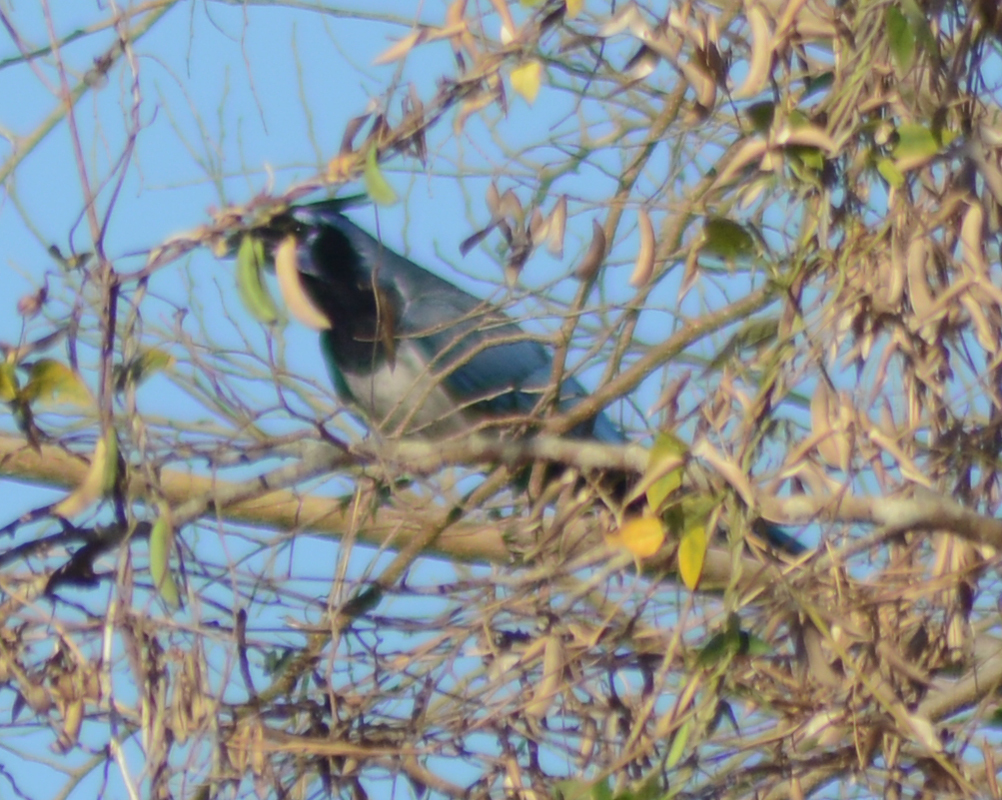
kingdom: Animalia
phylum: Chordata
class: Aves
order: Passeriformes
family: Corvidae
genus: Calocitta
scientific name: Calocitta colliei
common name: Black-throated magpie-jay
